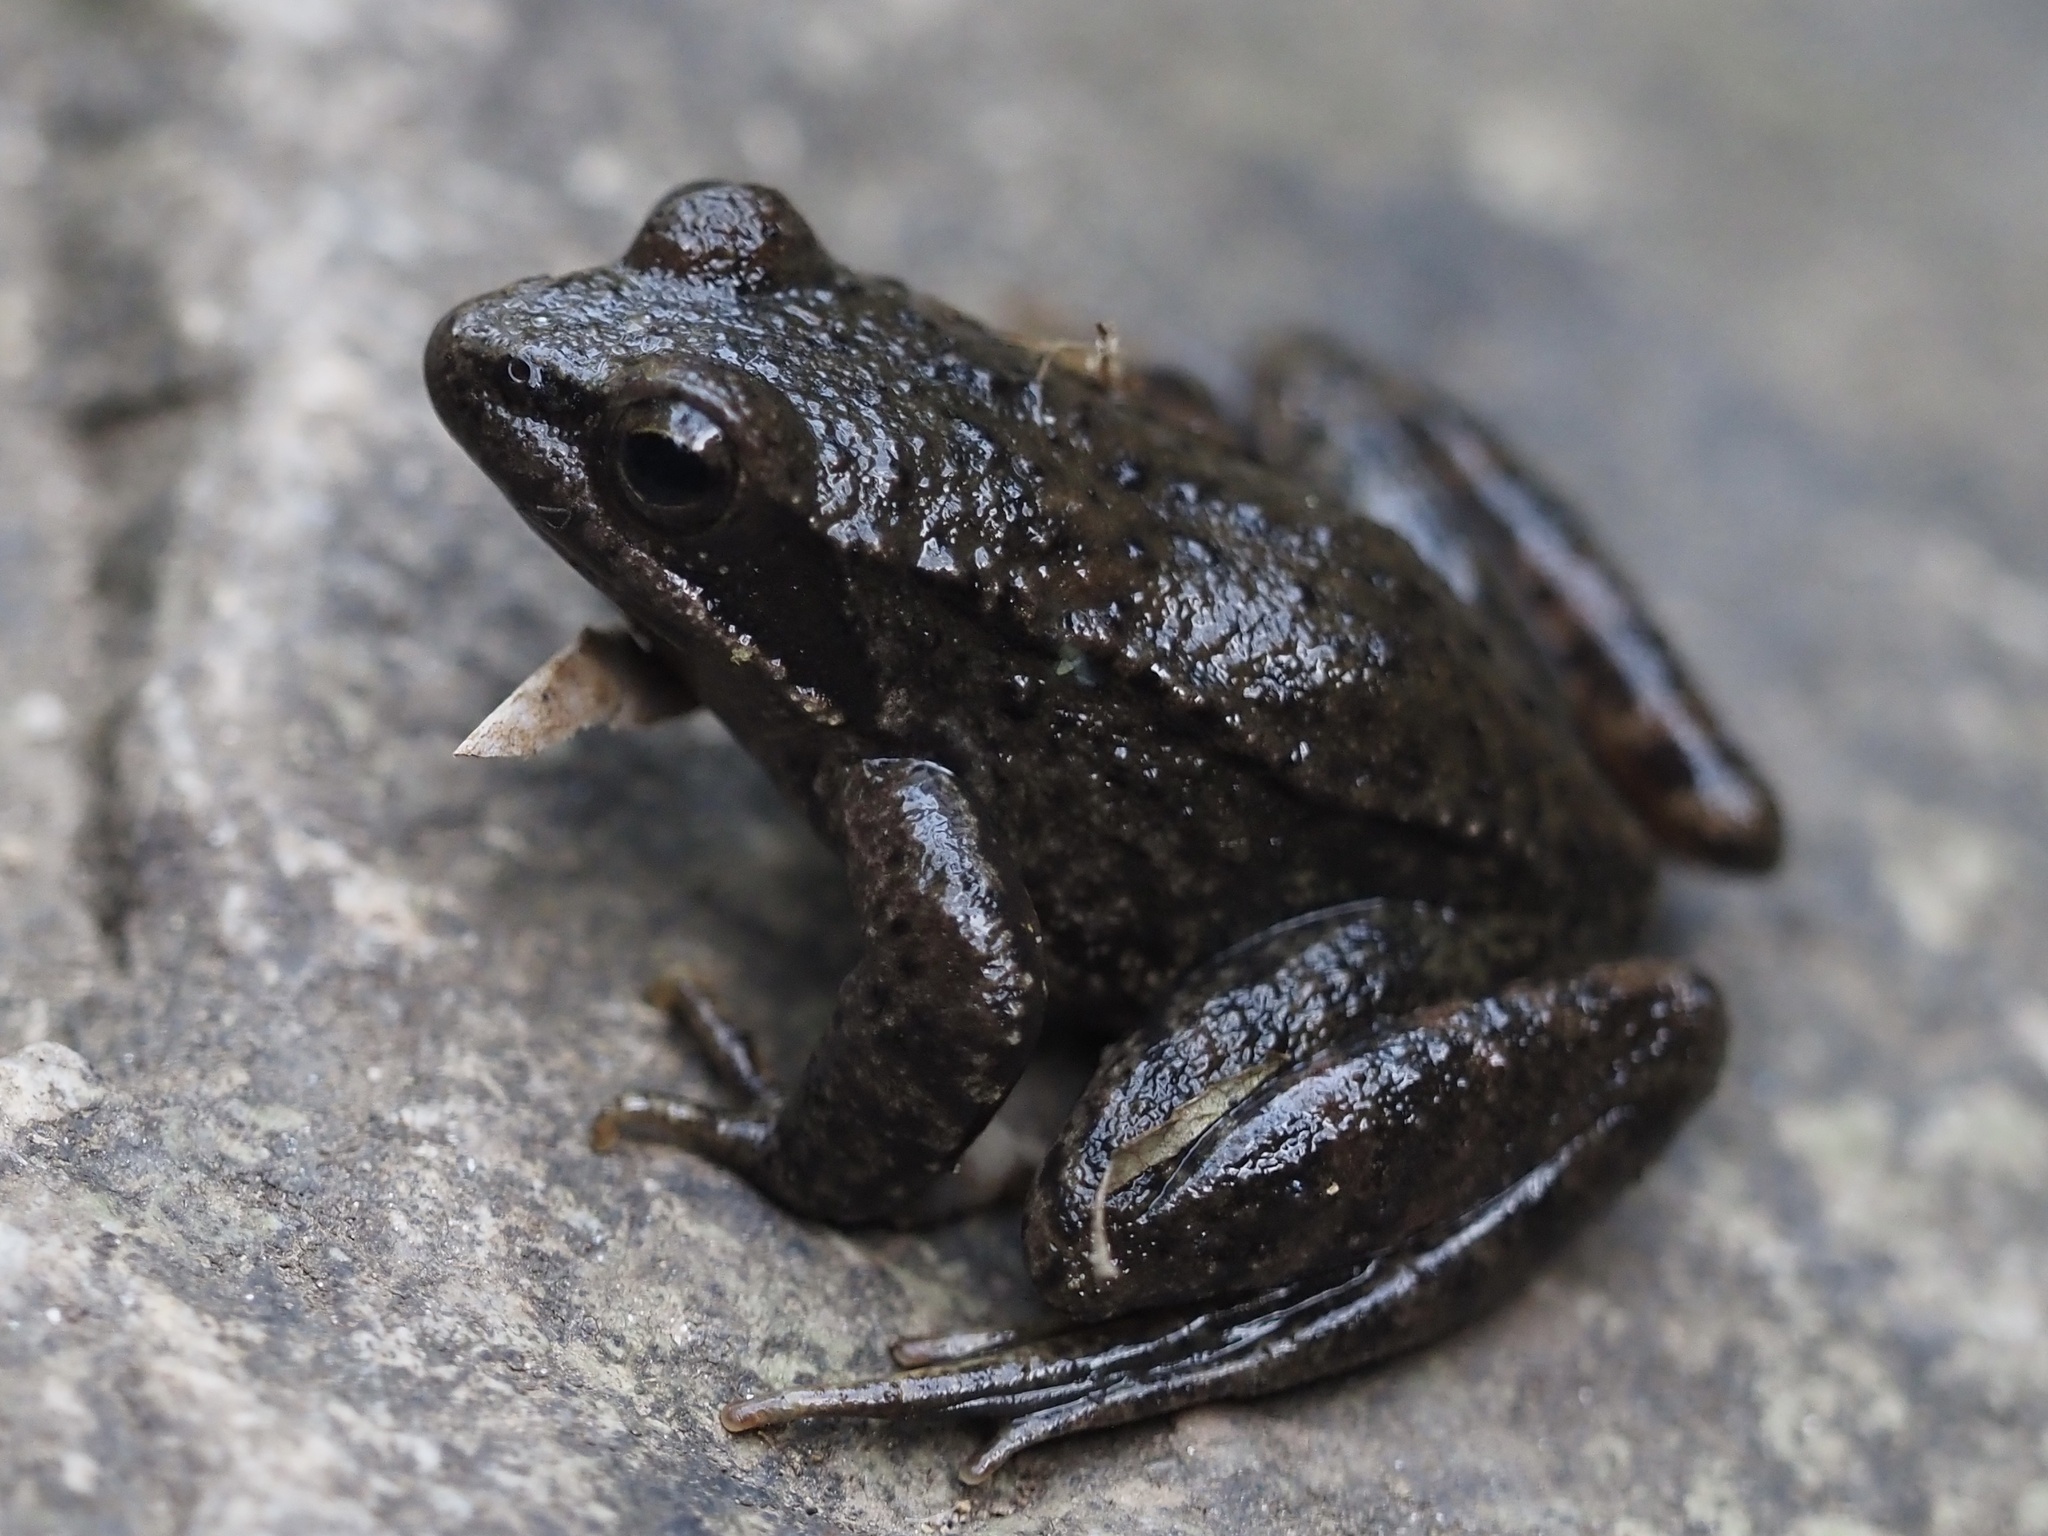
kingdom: Animalia
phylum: Chordata
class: Amphibia
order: Anura
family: Ranidae
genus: Rana
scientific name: Rana iberica
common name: Iberian frog
